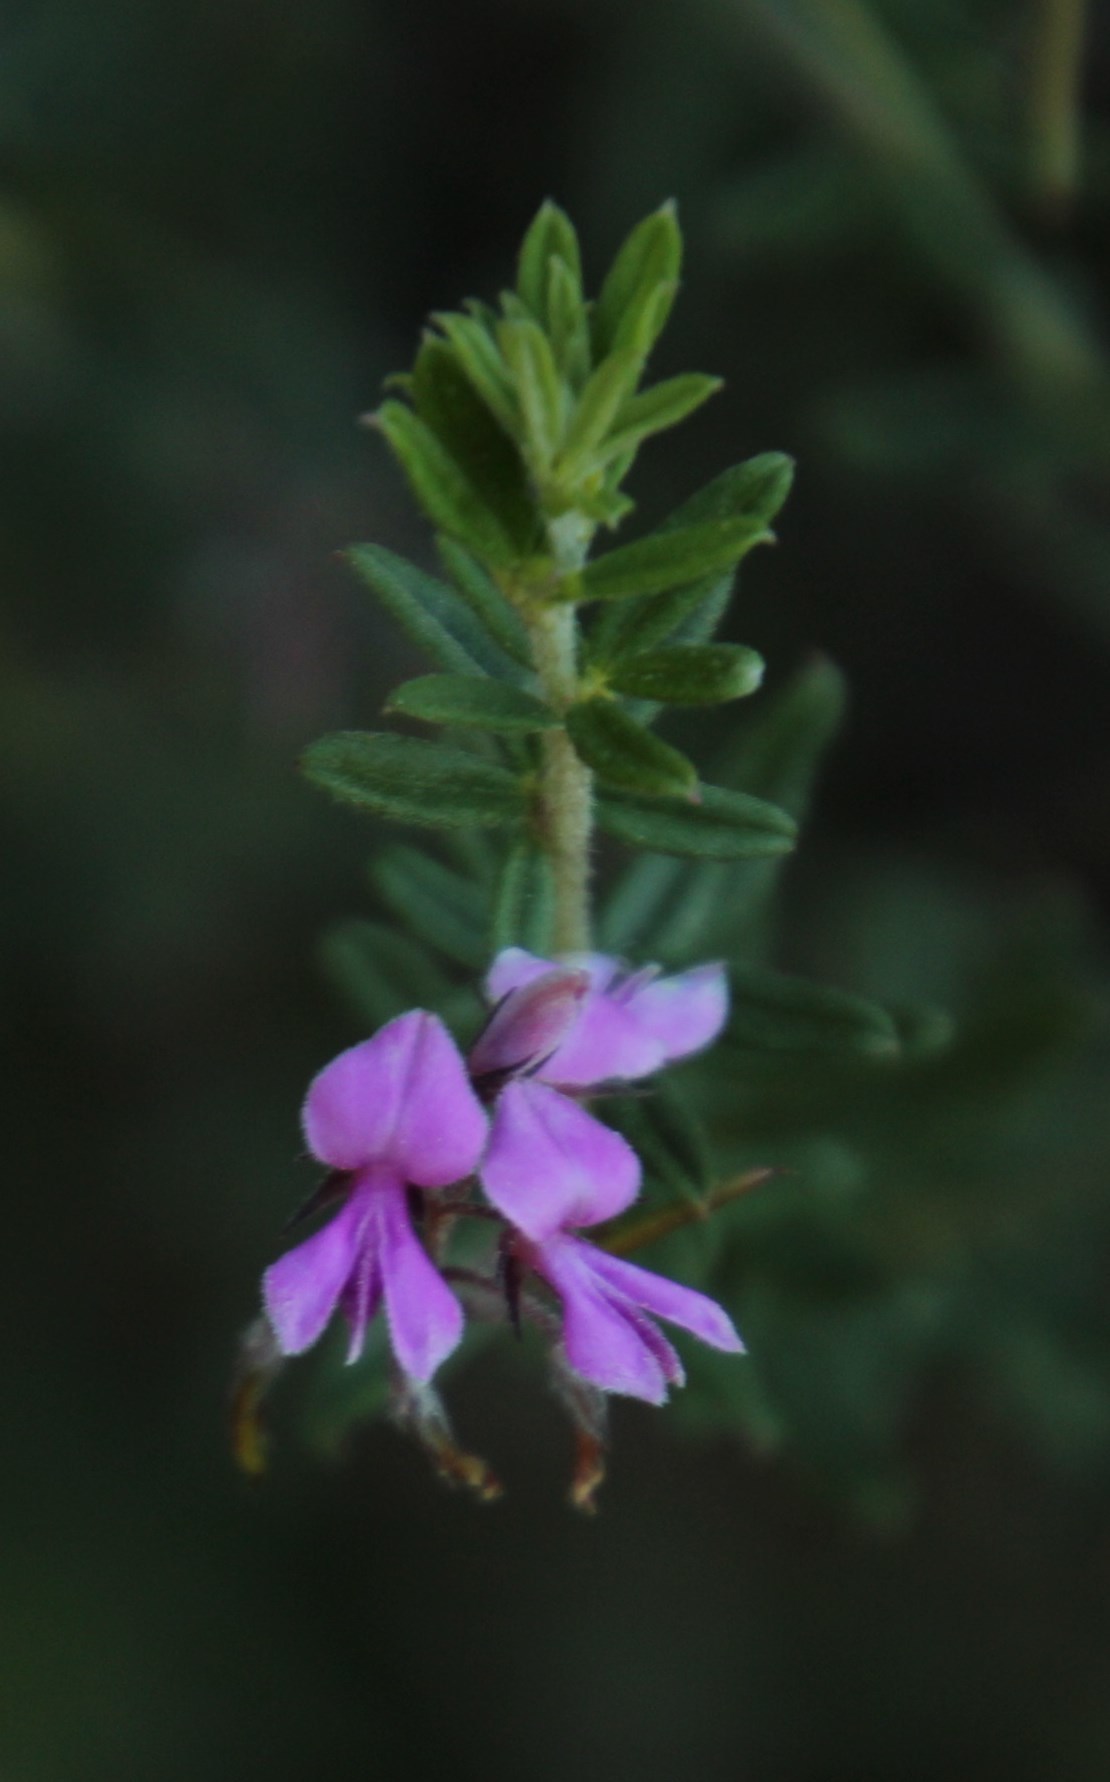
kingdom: Plantae
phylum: Tracheophyta
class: Magnoliopsida
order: Fabales
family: Fabaceae
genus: Indigofera
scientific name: Indigofera filiformis
